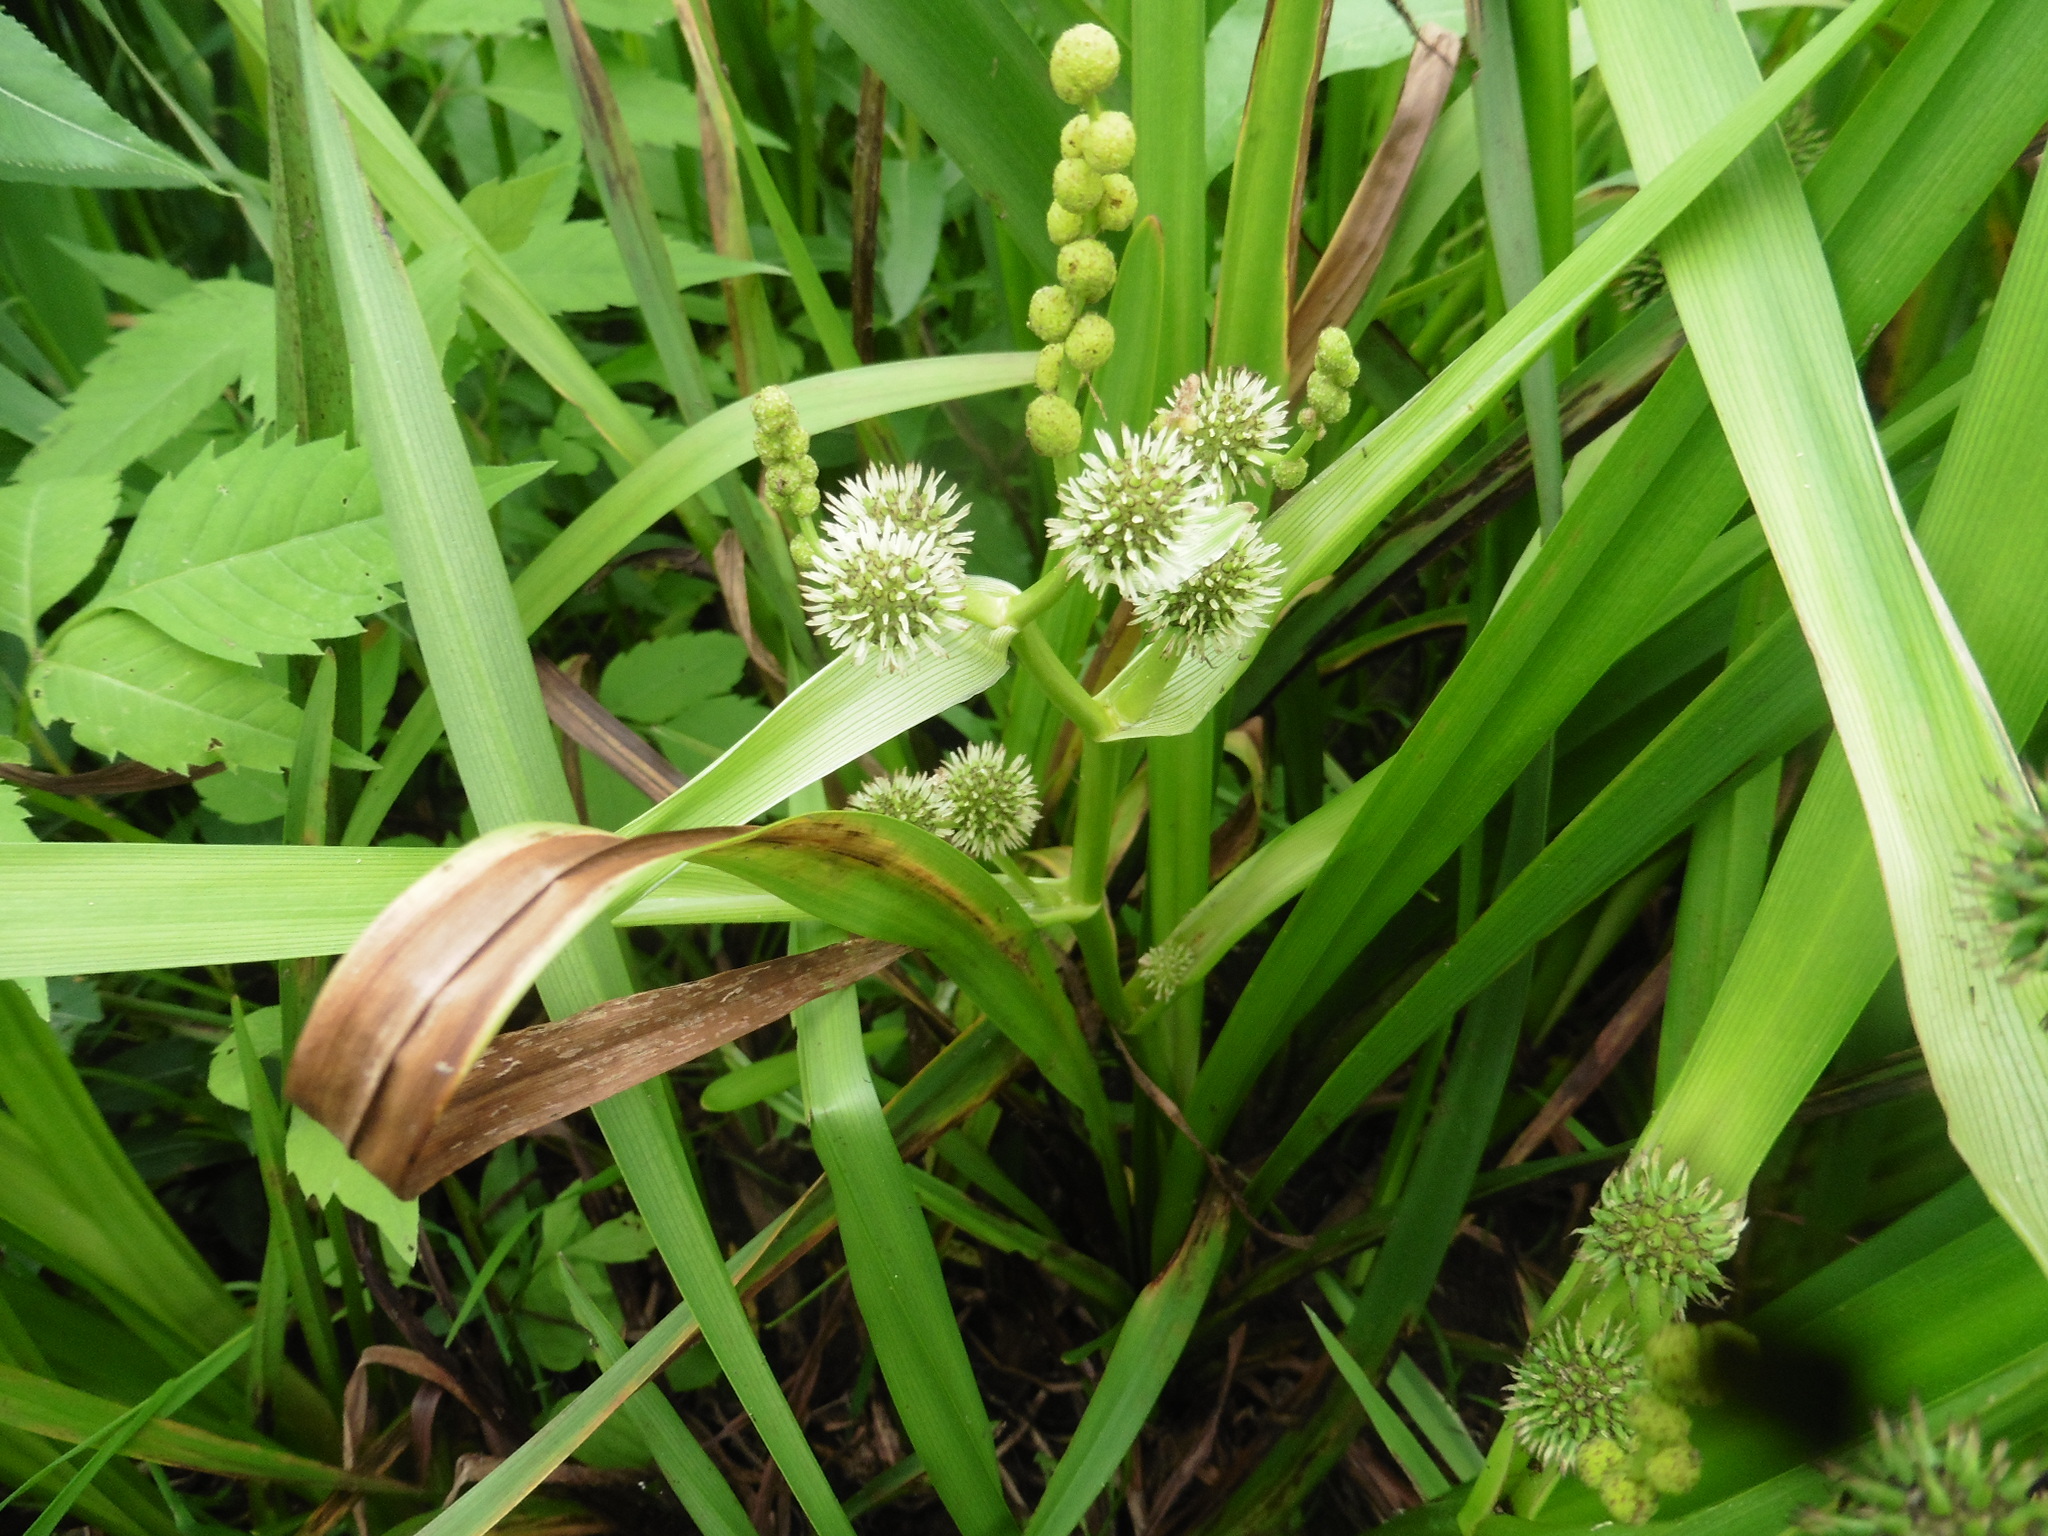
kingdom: Plantae
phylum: Tracheophyta
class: Liliopsida
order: Poales
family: Typhaceae
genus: Sparganium
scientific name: Sparganium erectum
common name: Branched bur-reed
